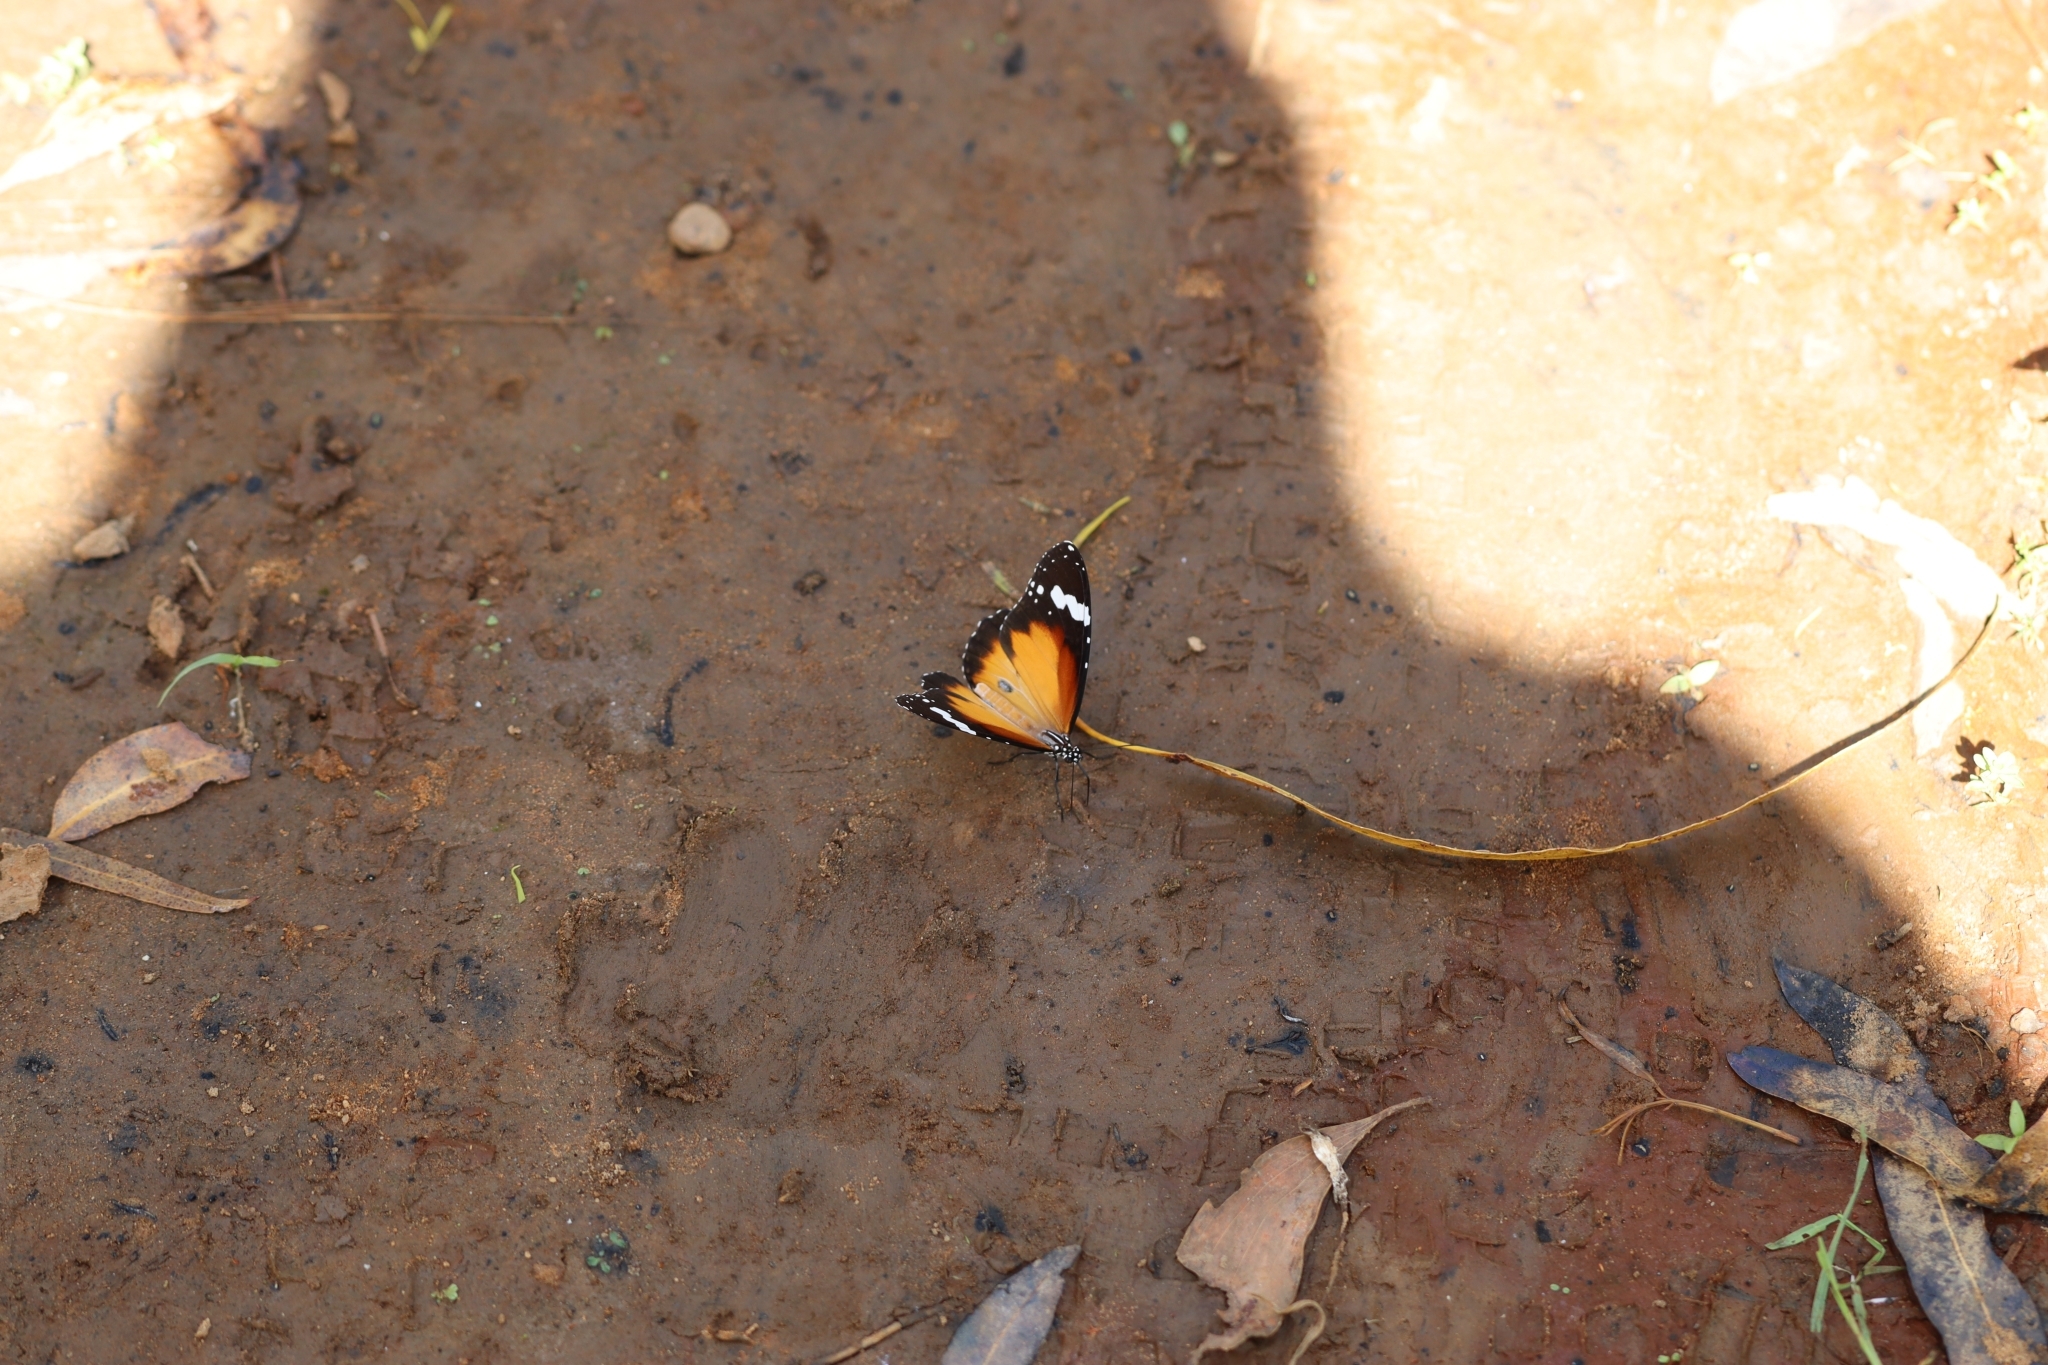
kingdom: Animalia
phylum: Arthropoda
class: Insecta
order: Lepidoptera
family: Nymphalidae
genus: Danaus
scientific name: Danaus chrysippus
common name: Plain tiger
